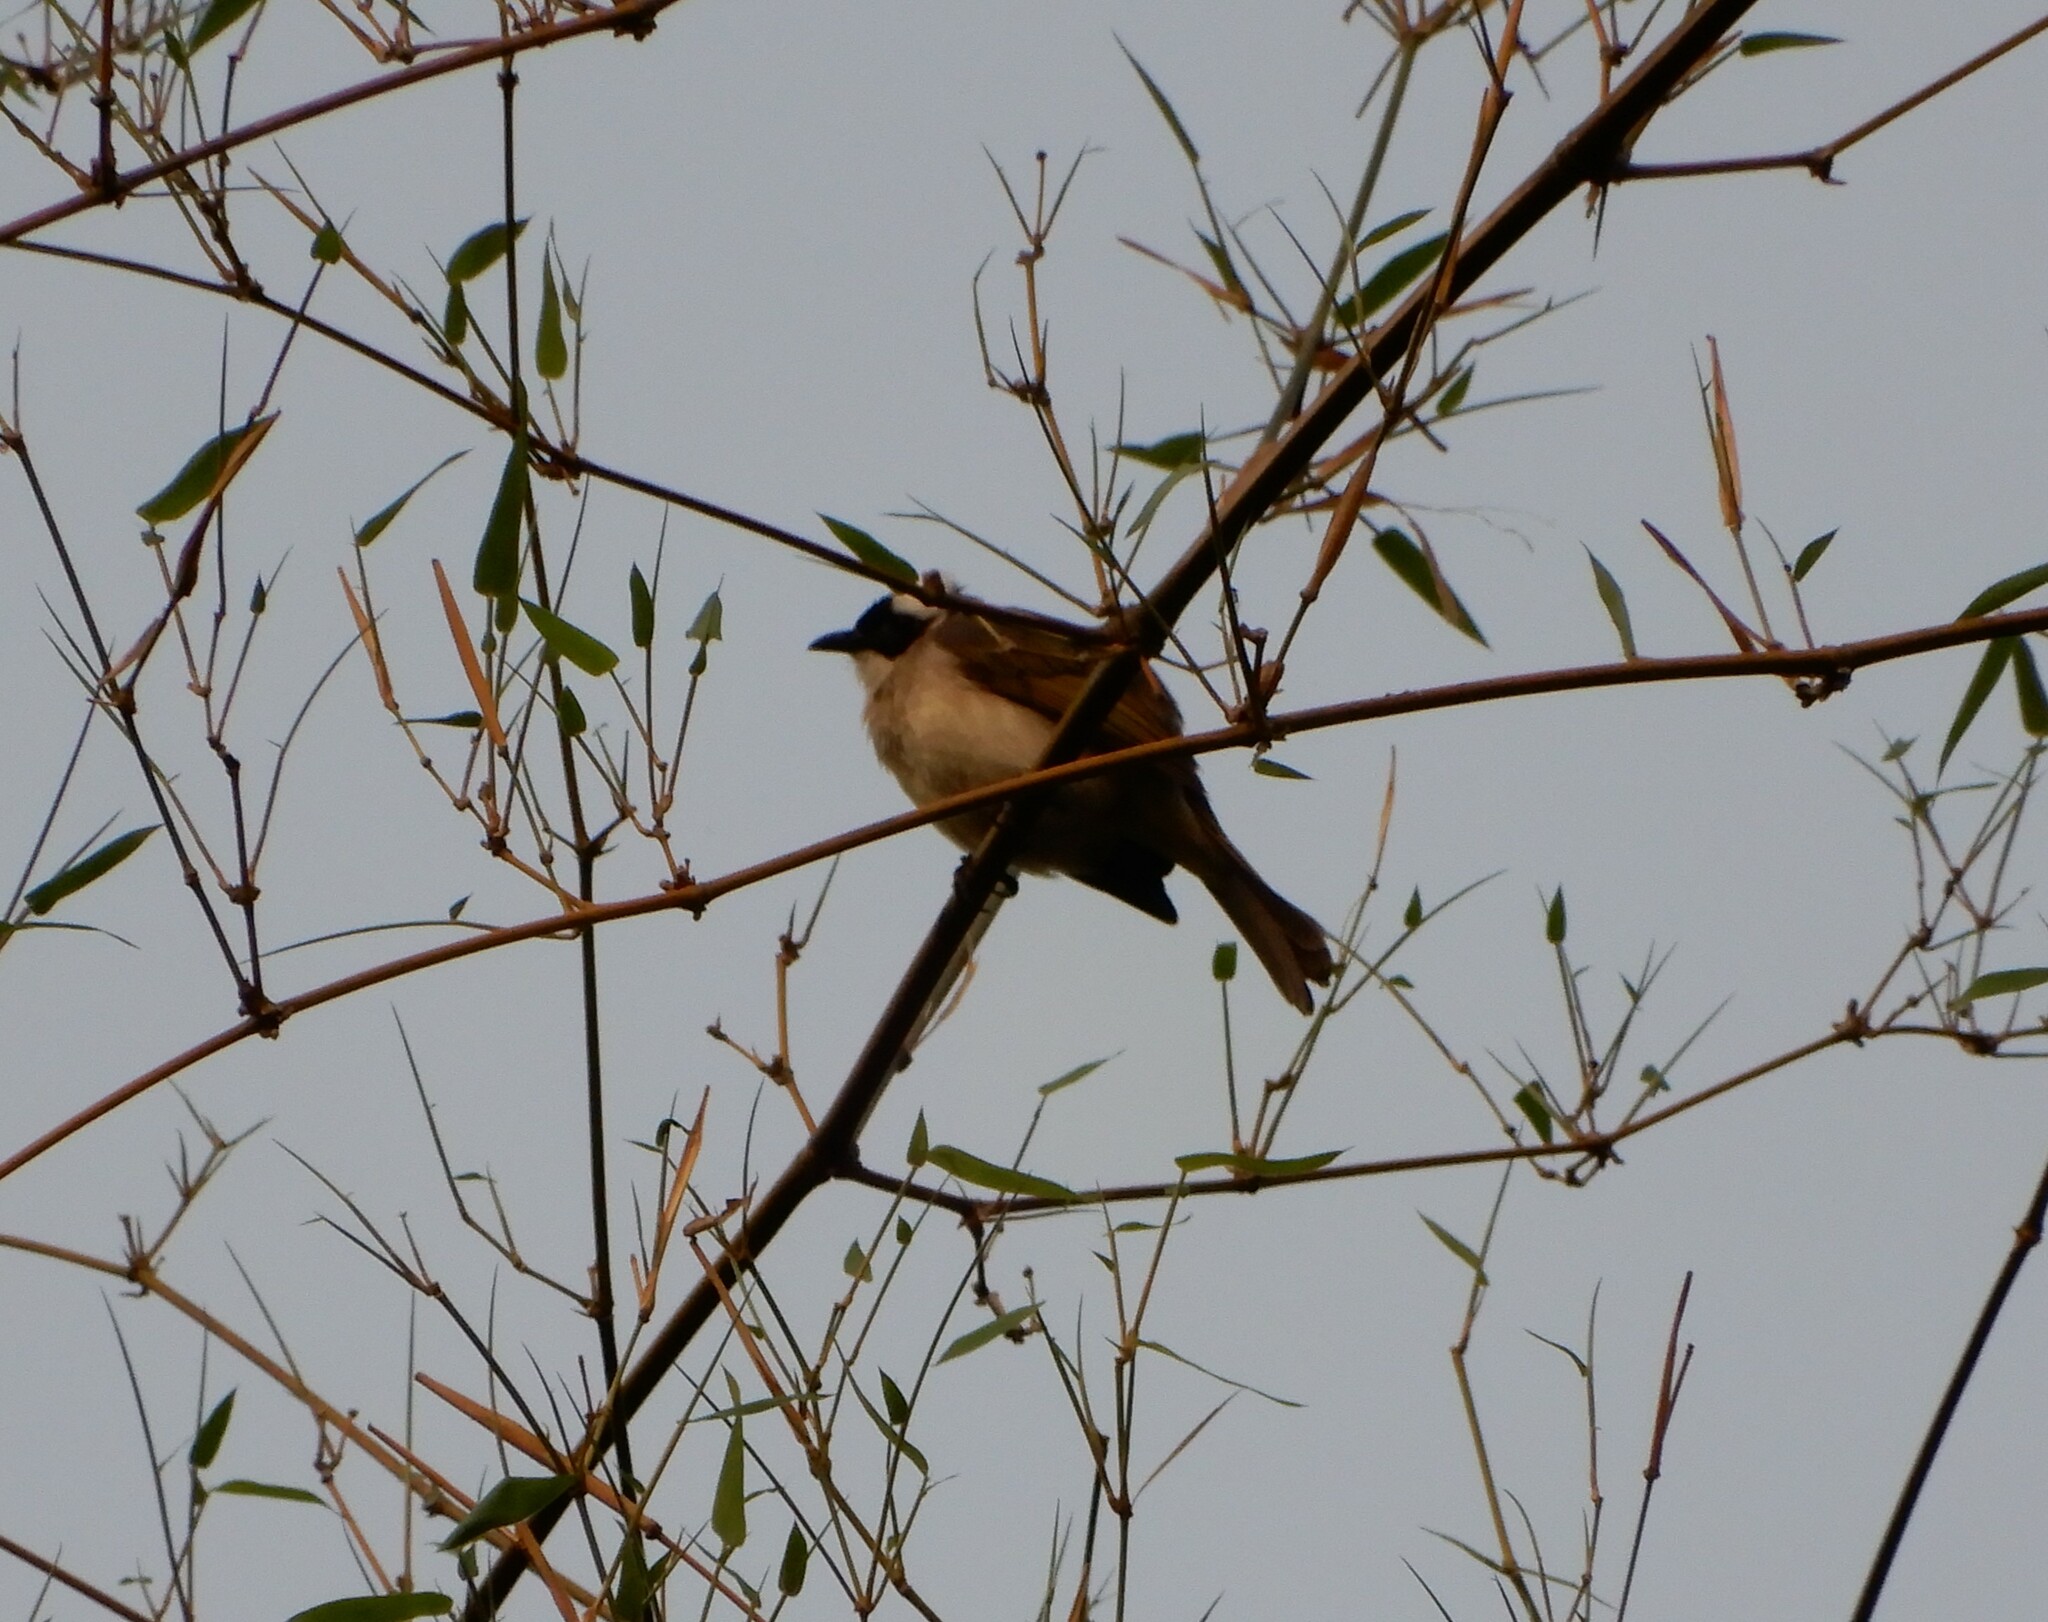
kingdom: Animalia
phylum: Chordata
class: Aves
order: Passeriformes
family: Pycnonotidae
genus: Pycnonotus
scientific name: Pycnonotus sinensis
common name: Light-vented bulbul
